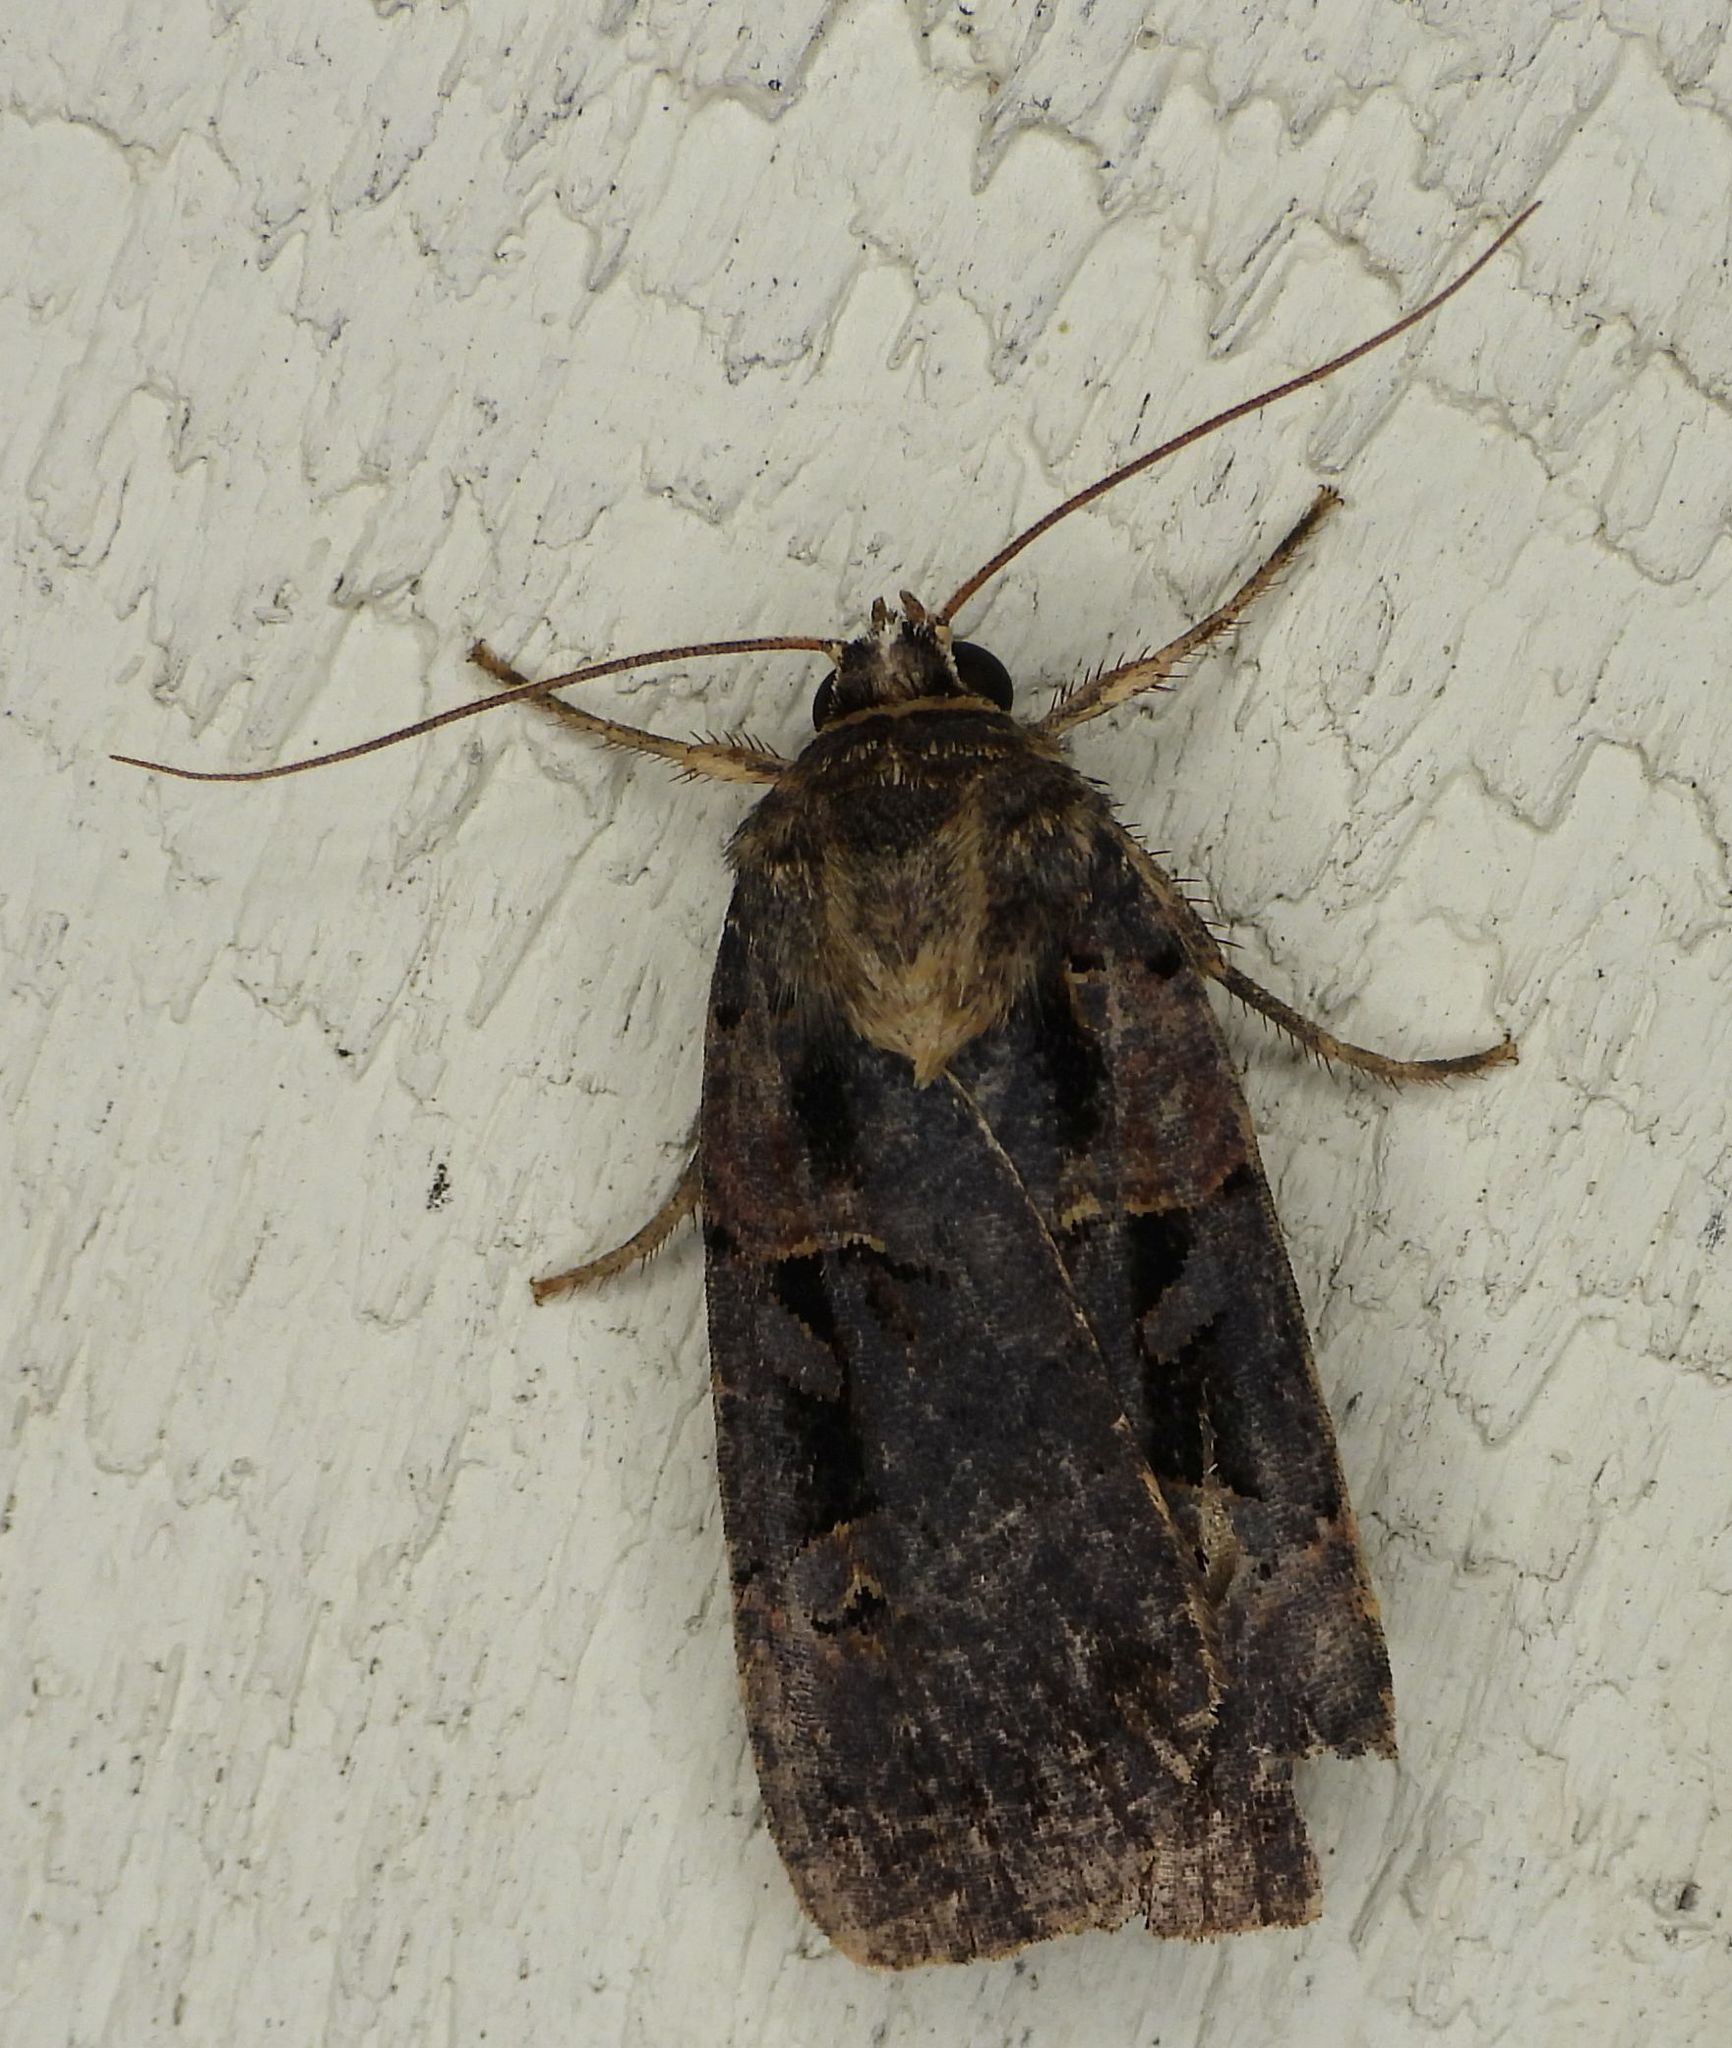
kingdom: Animalia
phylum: Arthropoda
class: Insecta
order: Lepidoptera
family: Noctuidae
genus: Pseudohermonassa
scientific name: Pseudohermonassa bicarnea
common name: Pink spotted dart
